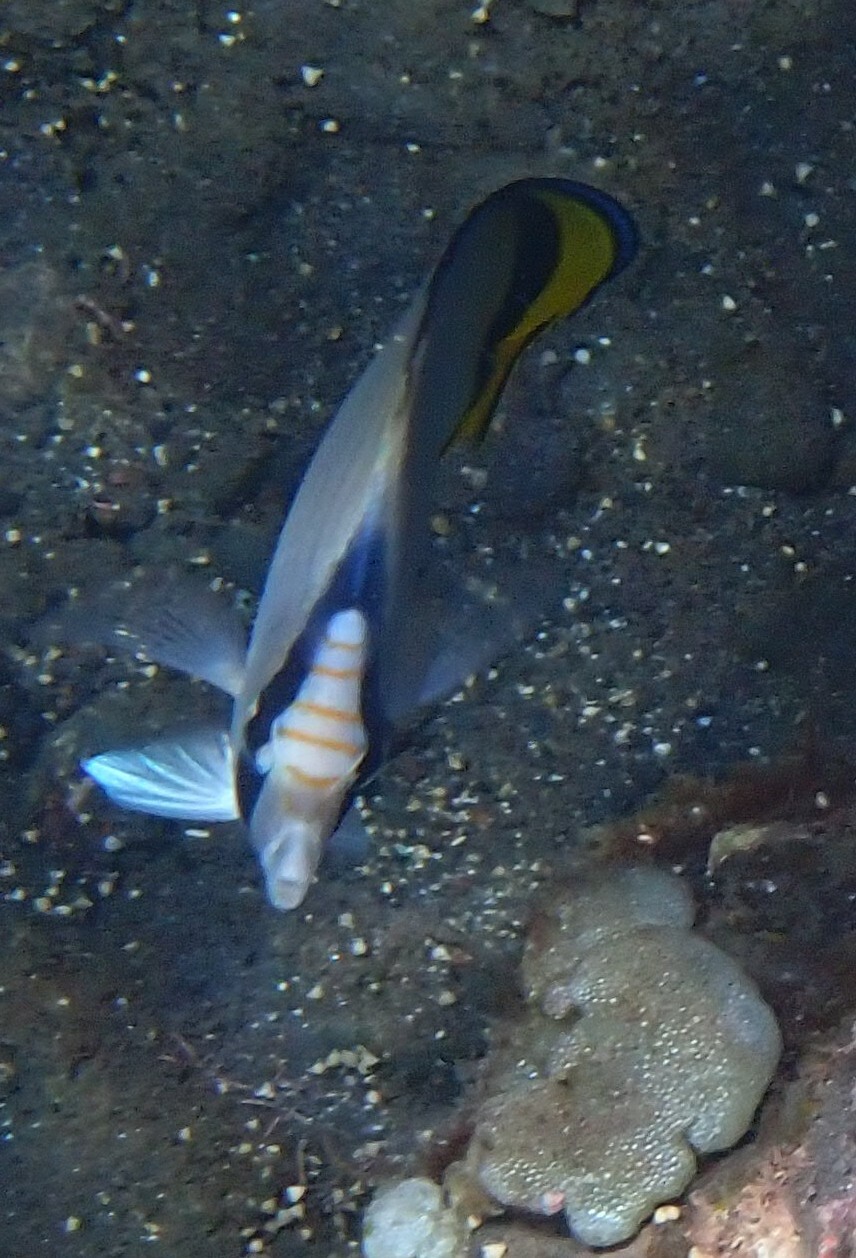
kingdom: Animalia
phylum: Chordata
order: Perciformes
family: Chaetodontidae
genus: Chaetodon
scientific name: Chaetodon vagabundus
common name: Vagabond butterflyfish
